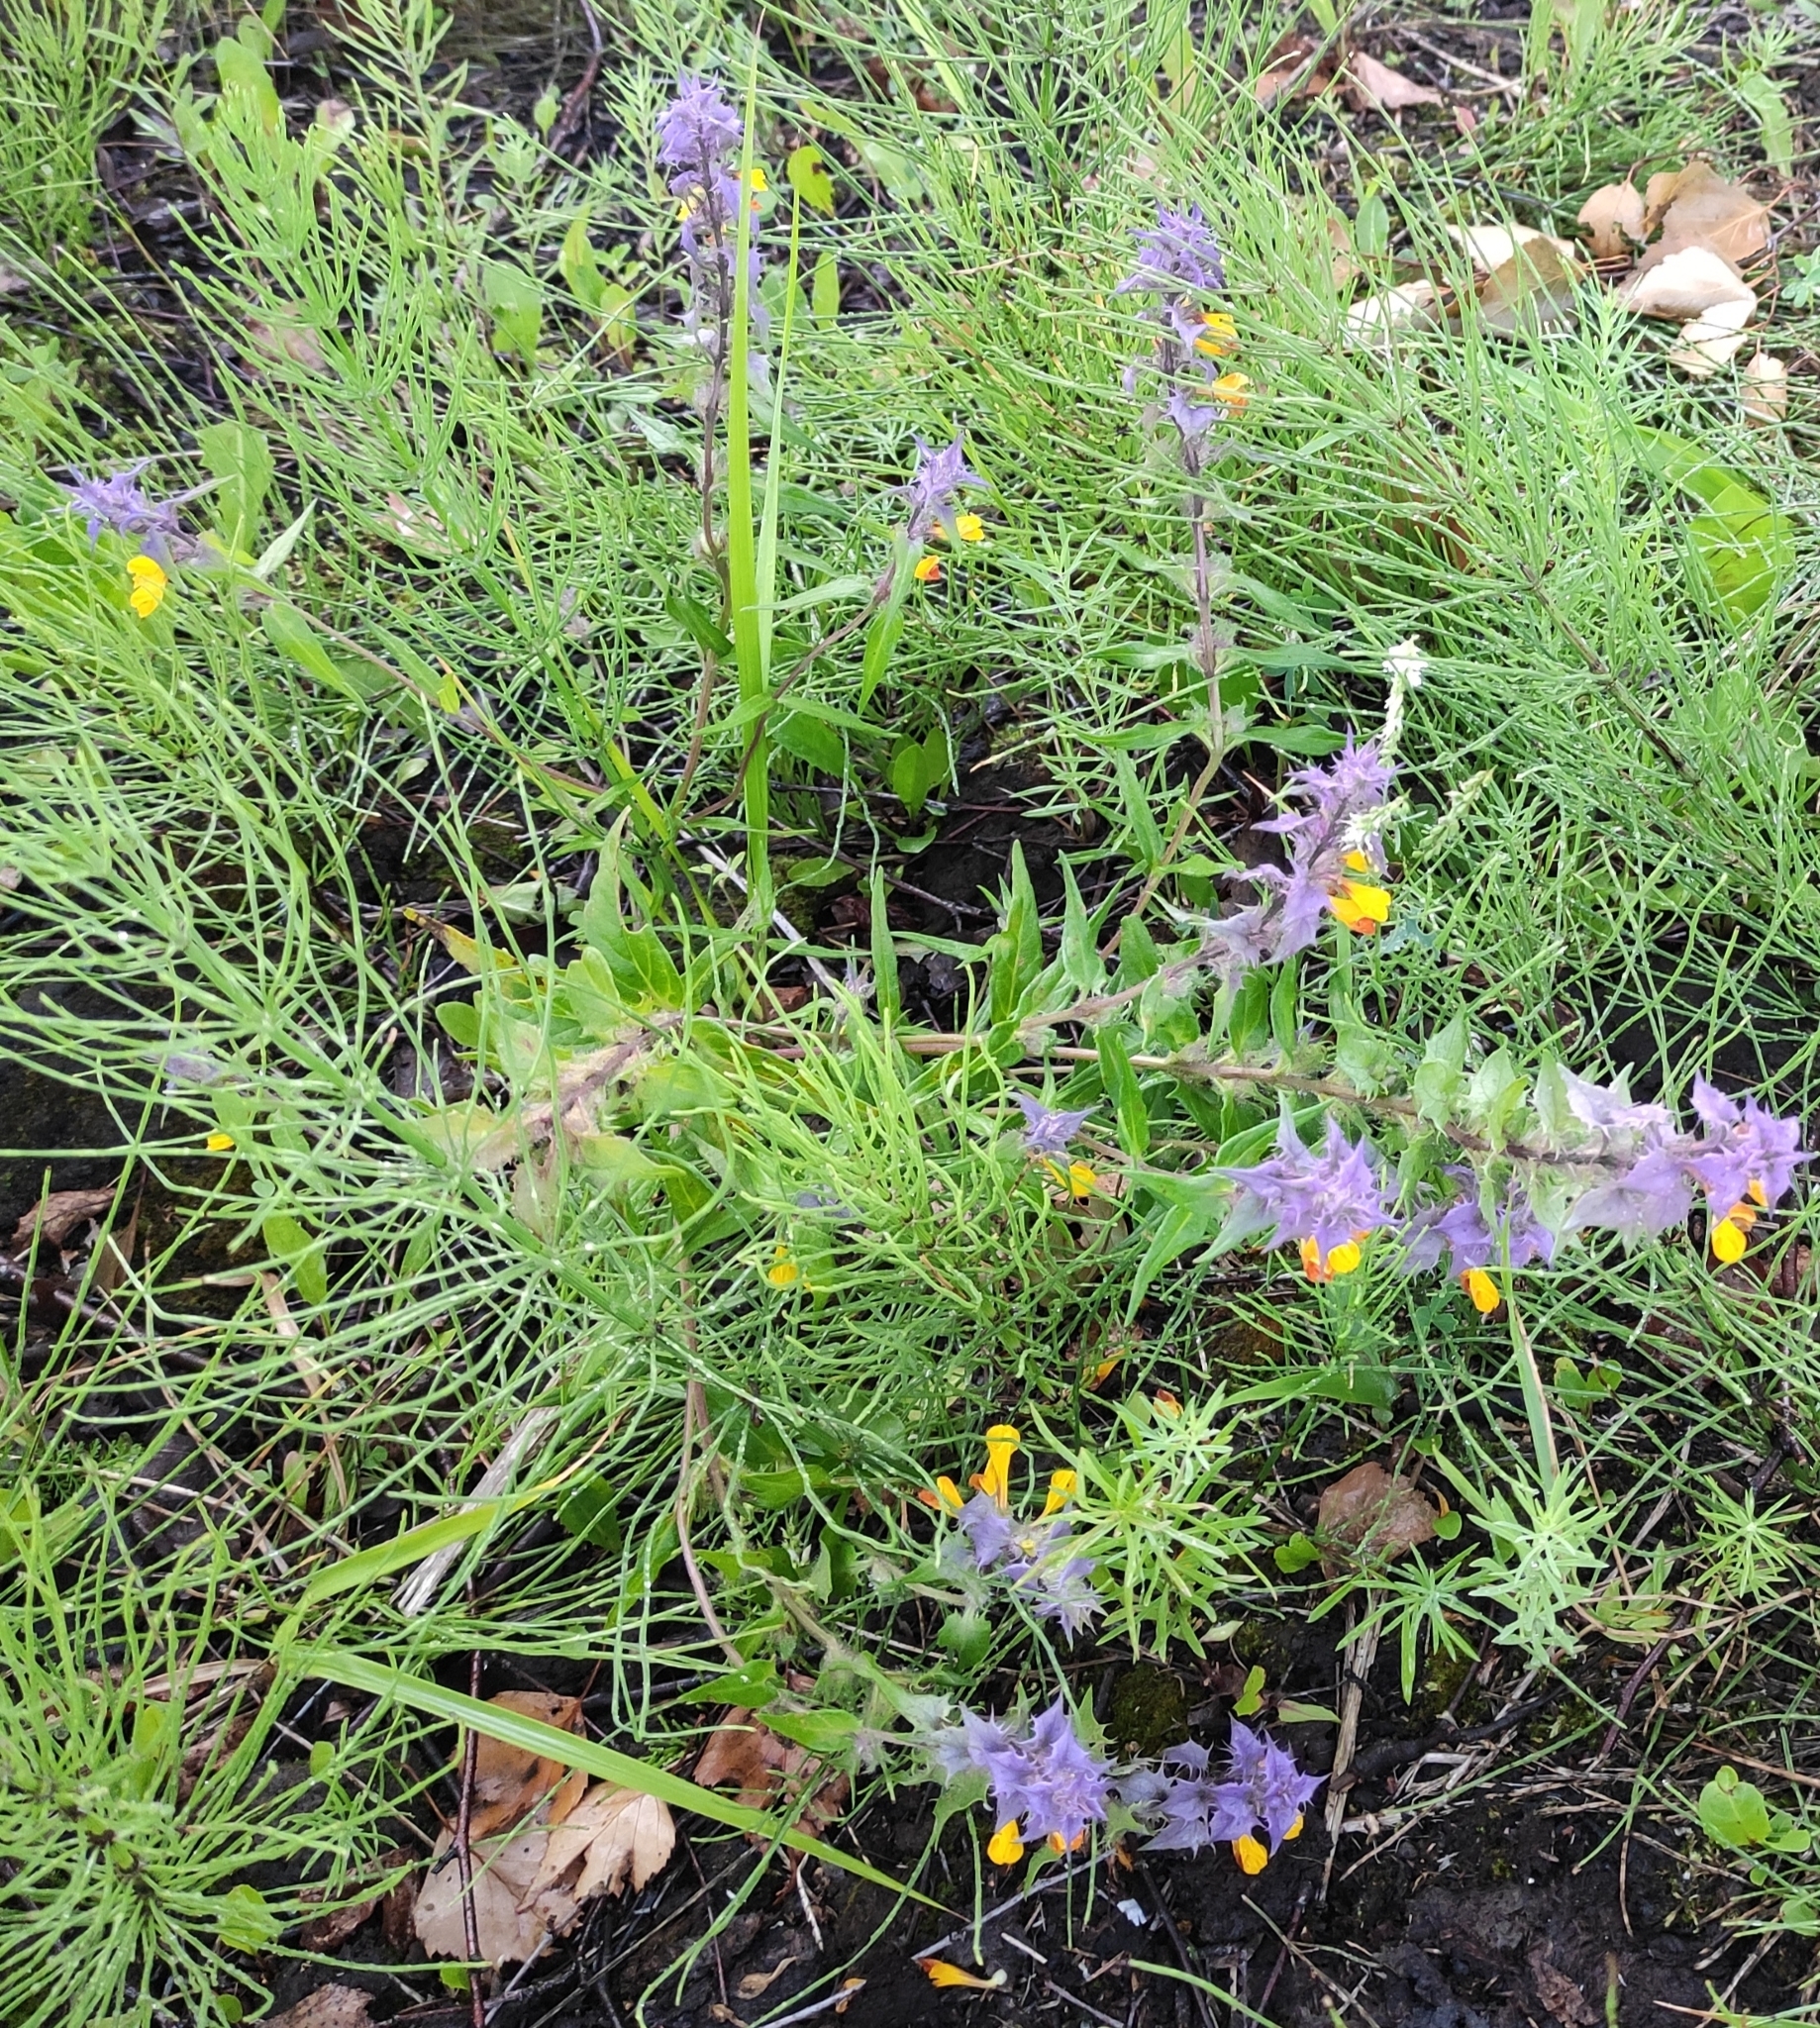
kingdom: Plantae
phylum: Tracheophyta
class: Magnoliopsida
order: Lamiales
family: Orobanchaceae
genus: Melampyrum
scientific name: Melampyrum nemorosum
